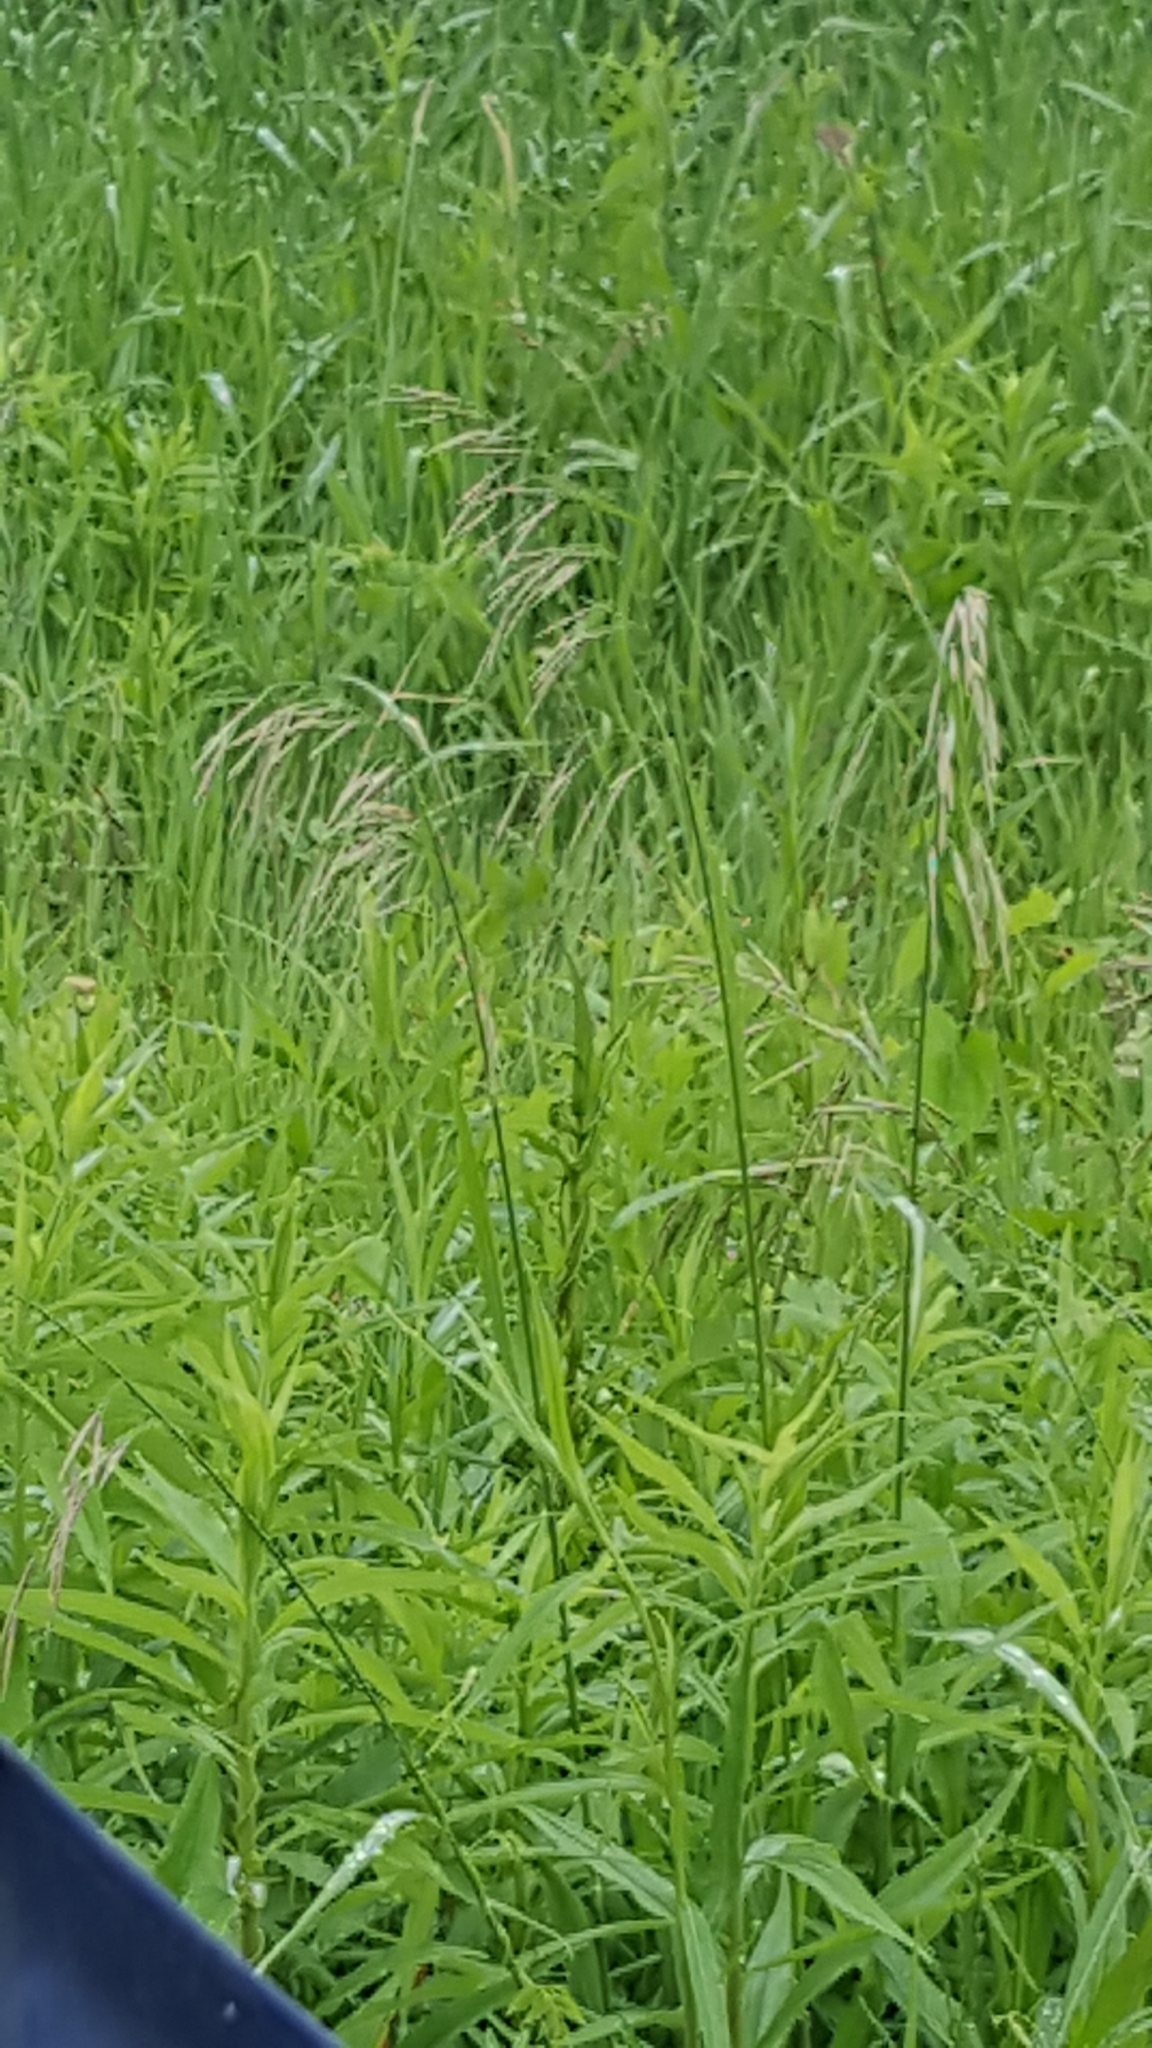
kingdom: Plantae
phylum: Tracheophyta
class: Liliopsida
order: Poales
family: Poaceae
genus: Bromus
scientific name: Bromus inermis
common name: Smooth brome
